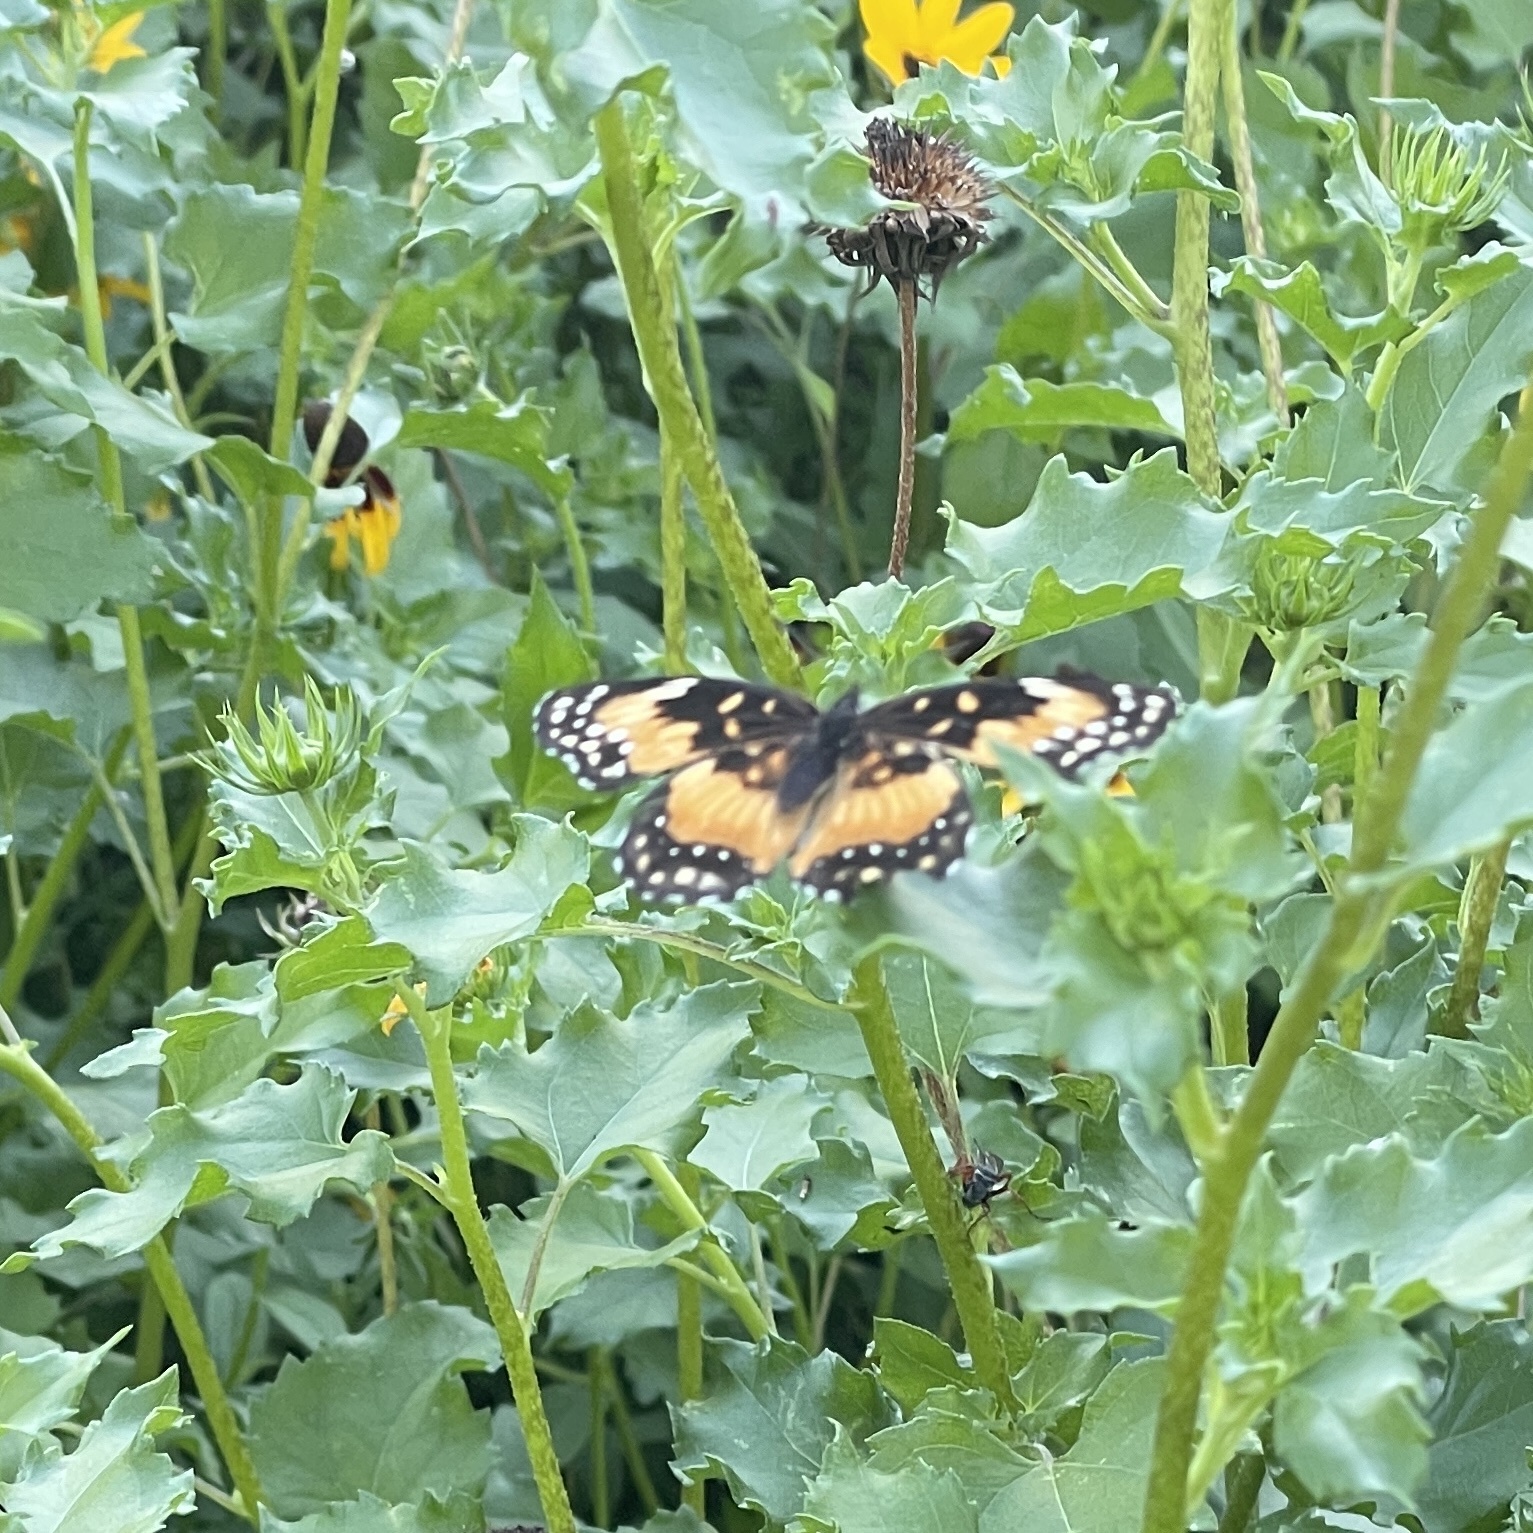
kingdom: Animalia
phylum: Arthropoda
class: Insecta
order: Lepidoptera
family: Nymphalidae
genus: Chlosyne
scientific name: Chlosyne lacinia
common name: Bordered patch
